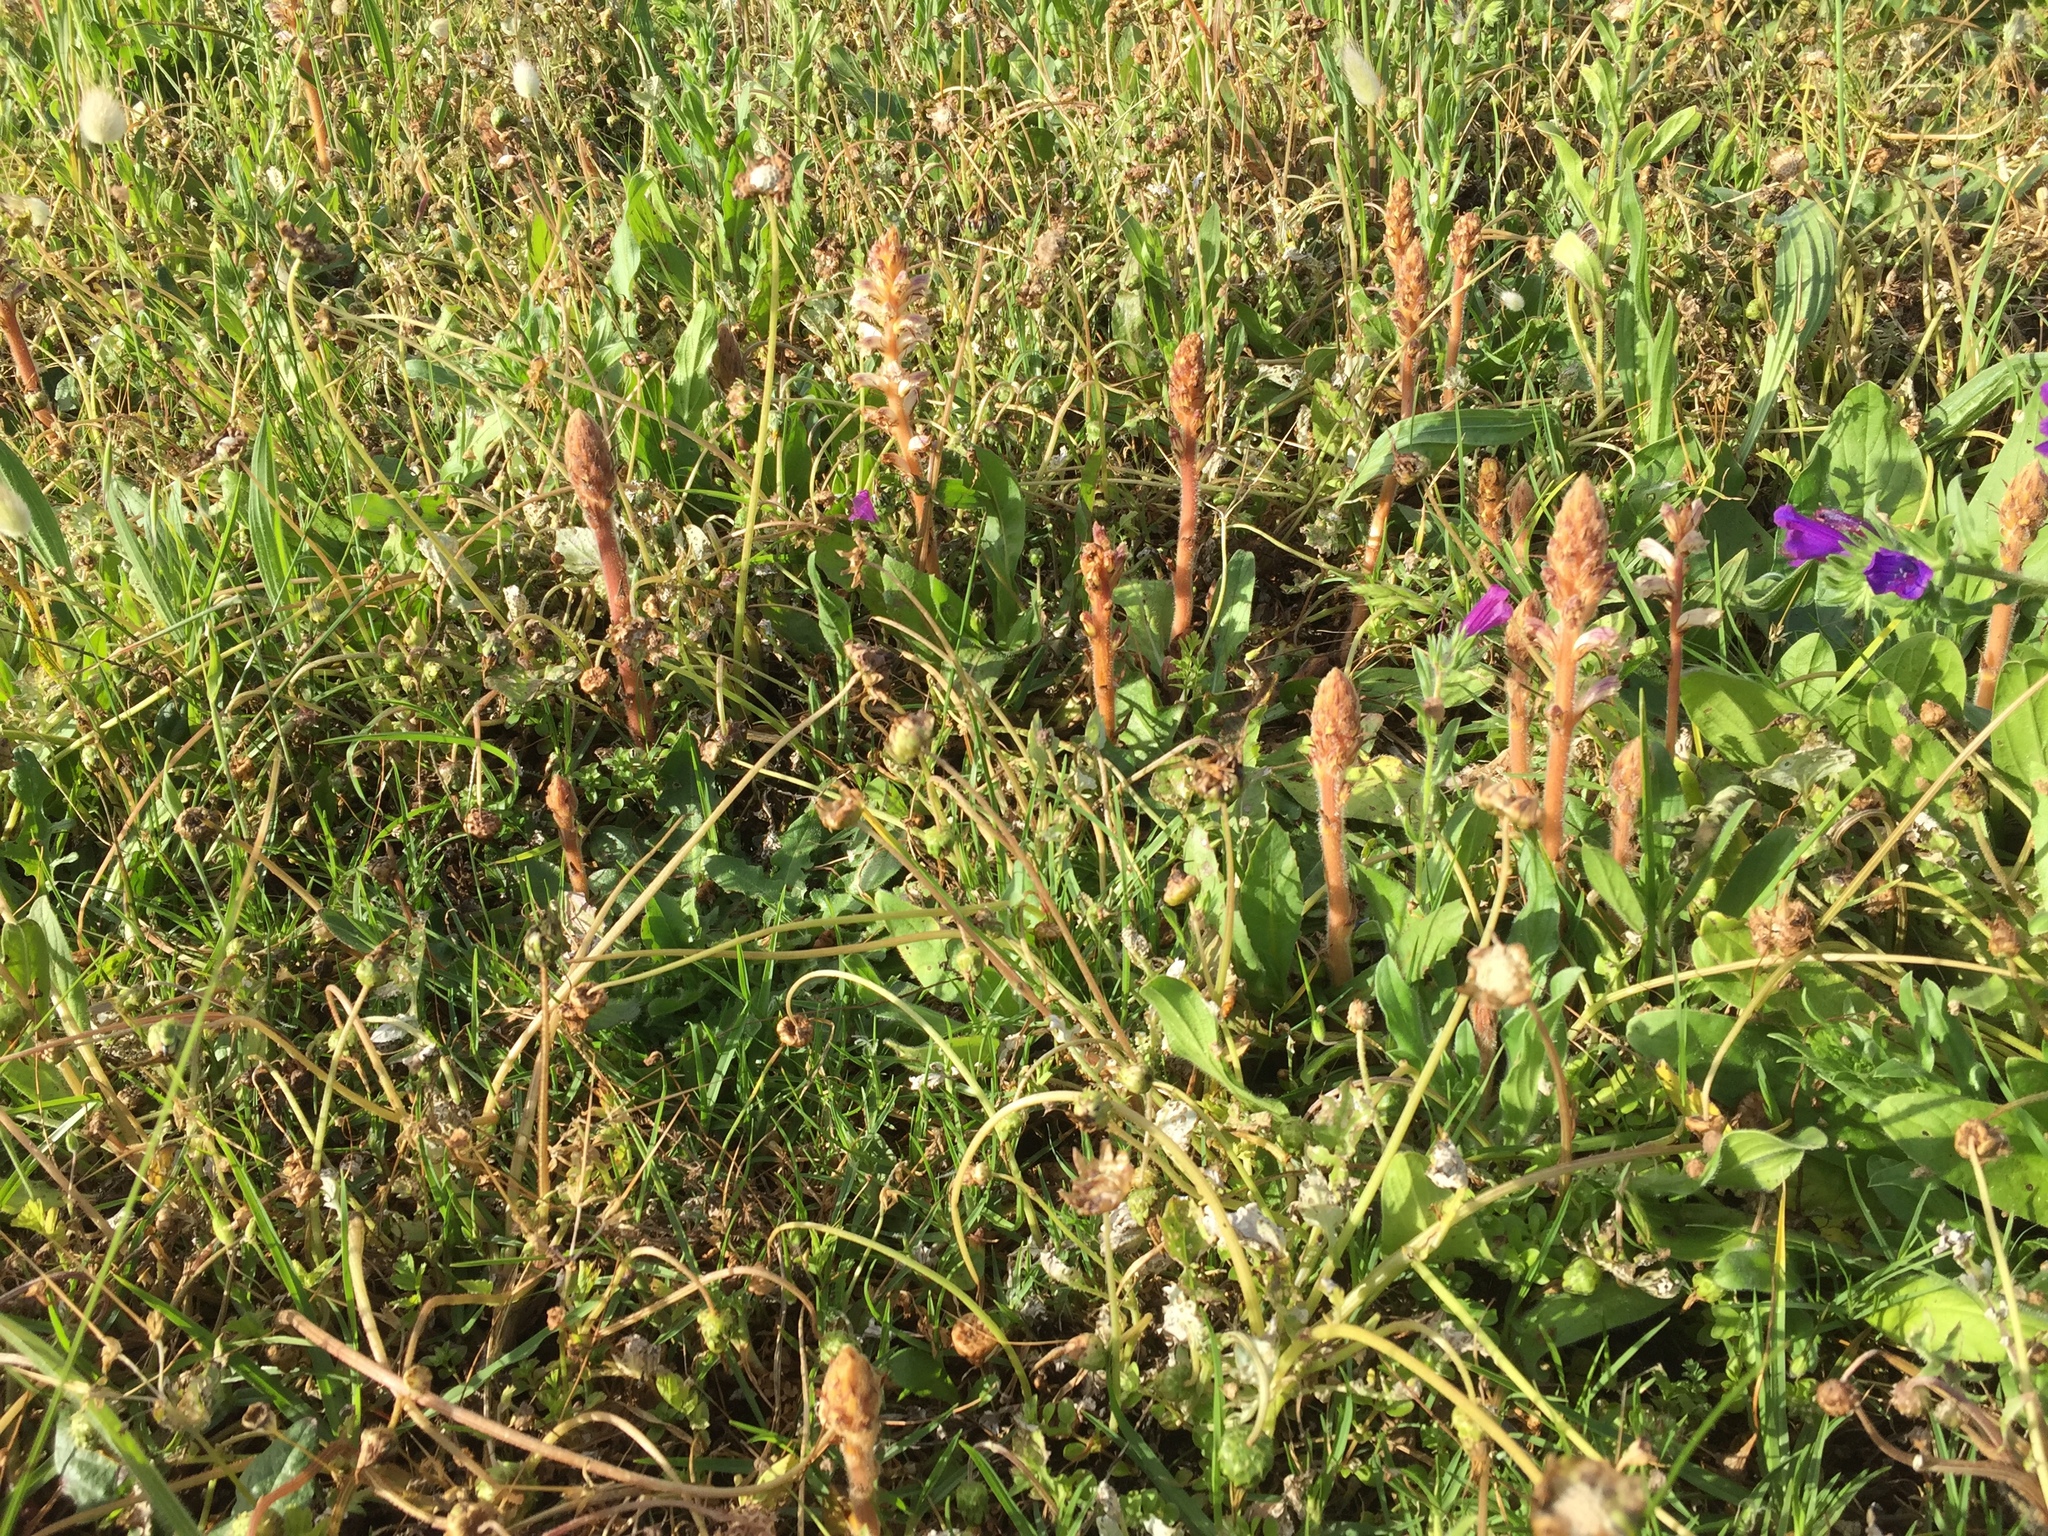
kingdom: Plantae
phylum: Tracheophyta
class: Magnoliopsida
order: Lamiales
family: Orobanchaceae
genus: Orobanche
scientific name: Orobanche minor
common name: Common broomrape
